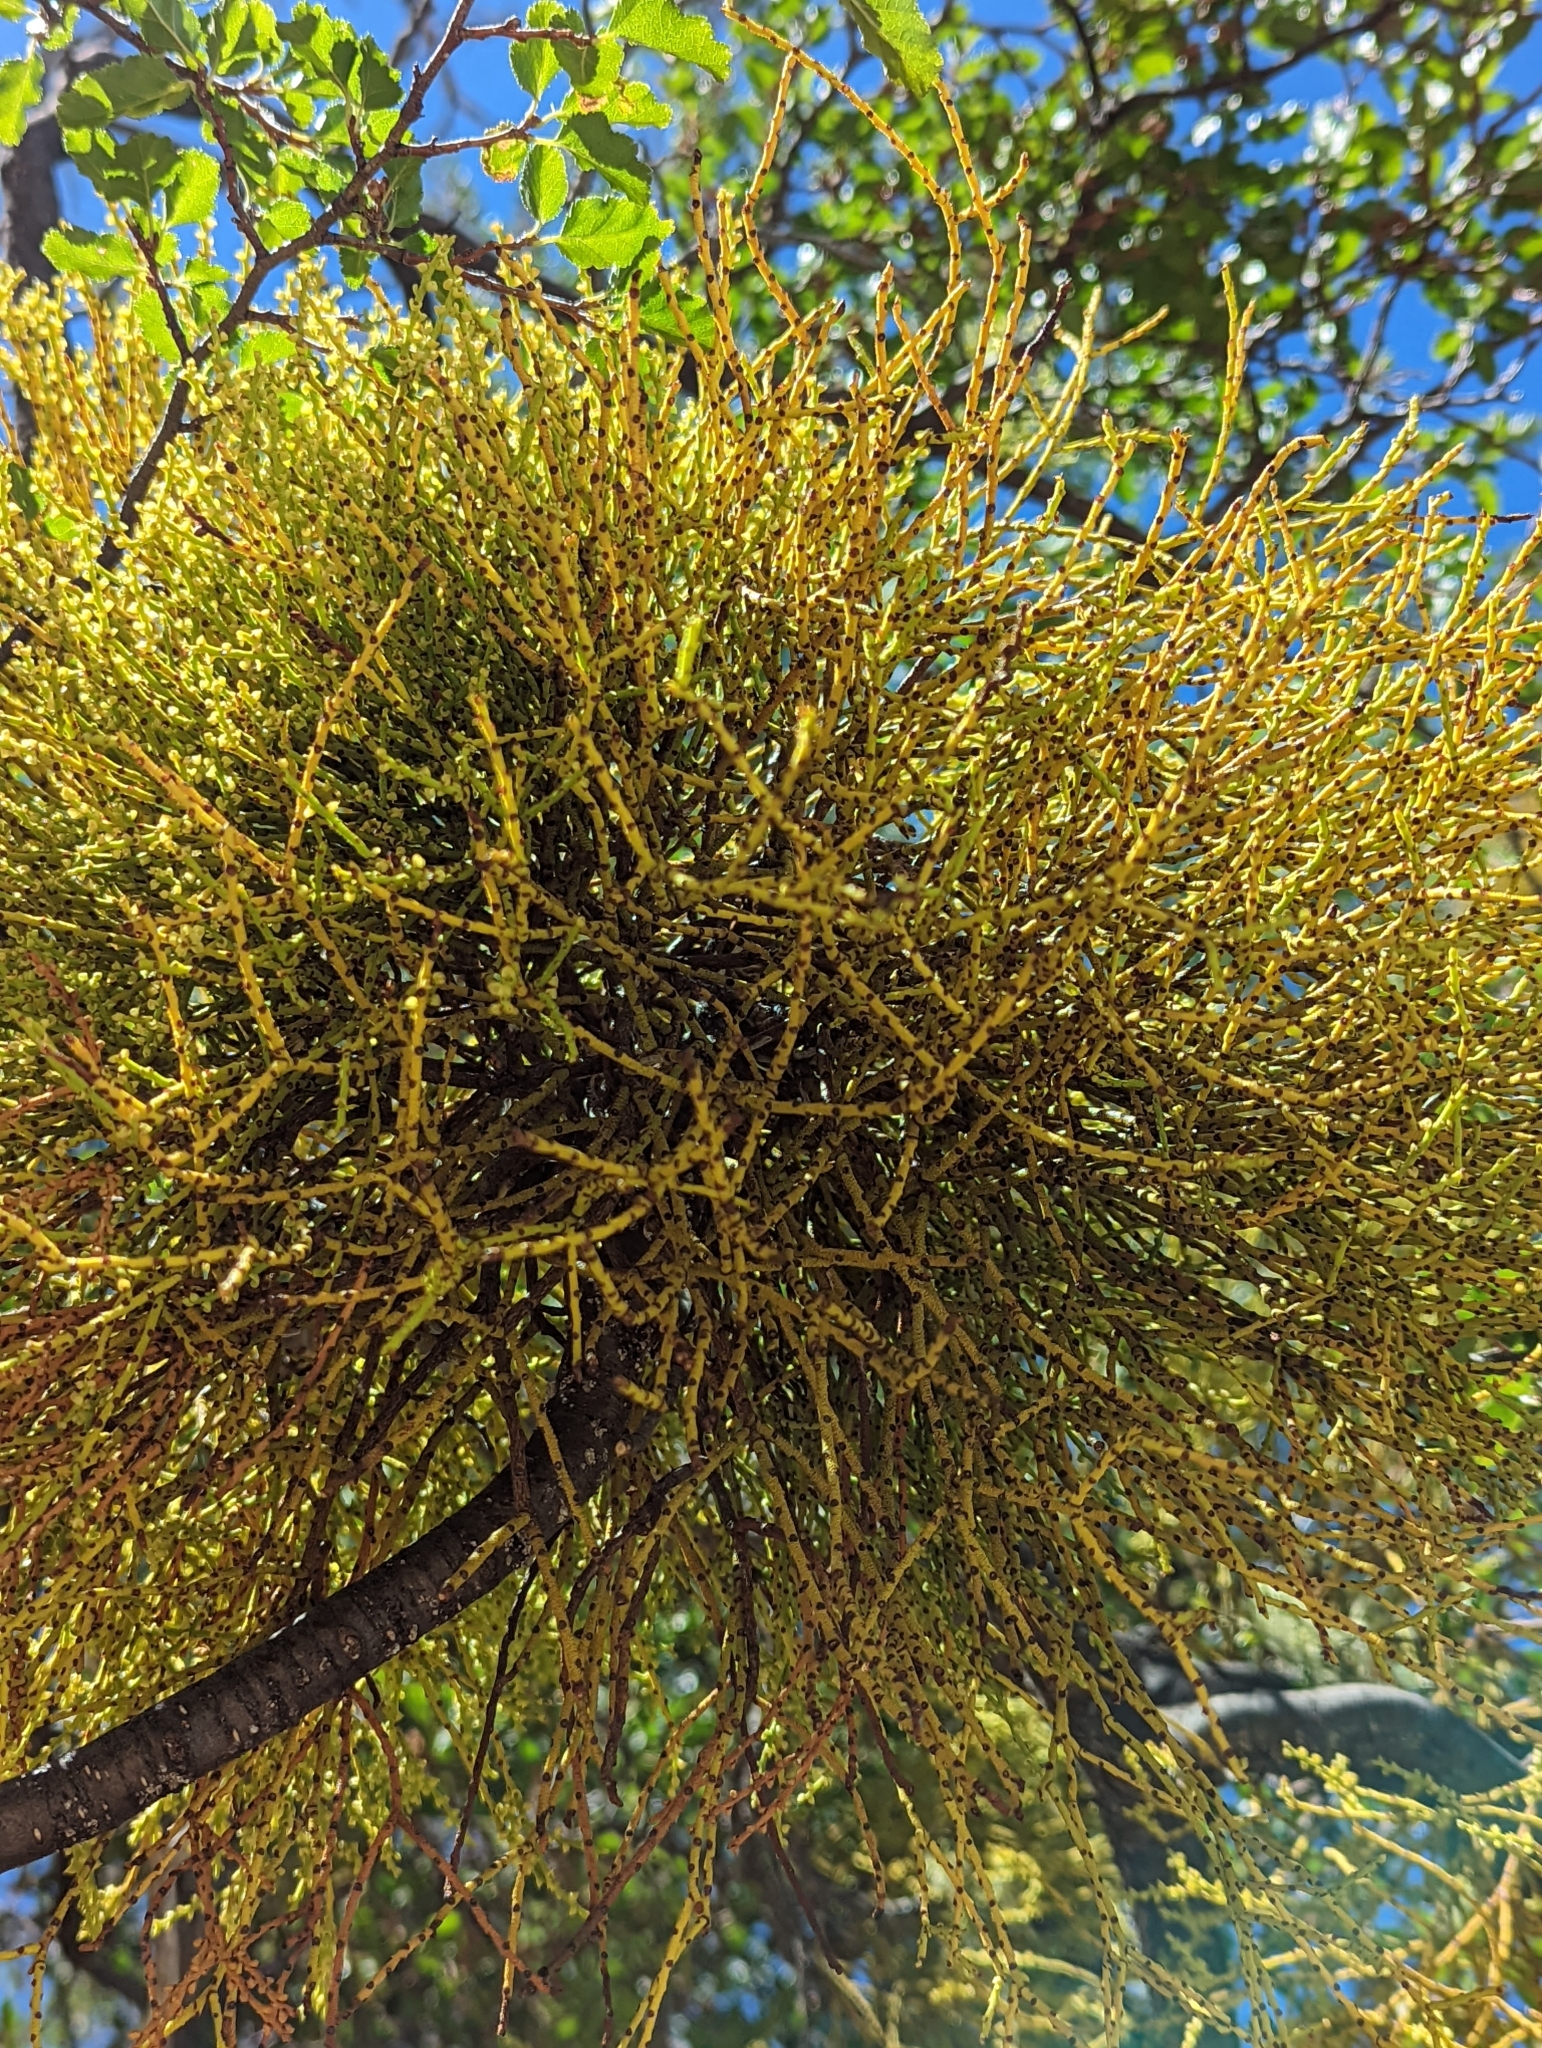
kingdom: Plantae
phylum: Tracheophyta
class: Magnoliopsida
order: Santalales
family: Misodendraceae
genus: Misodendrum
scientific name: Misodendrum punctulatum
